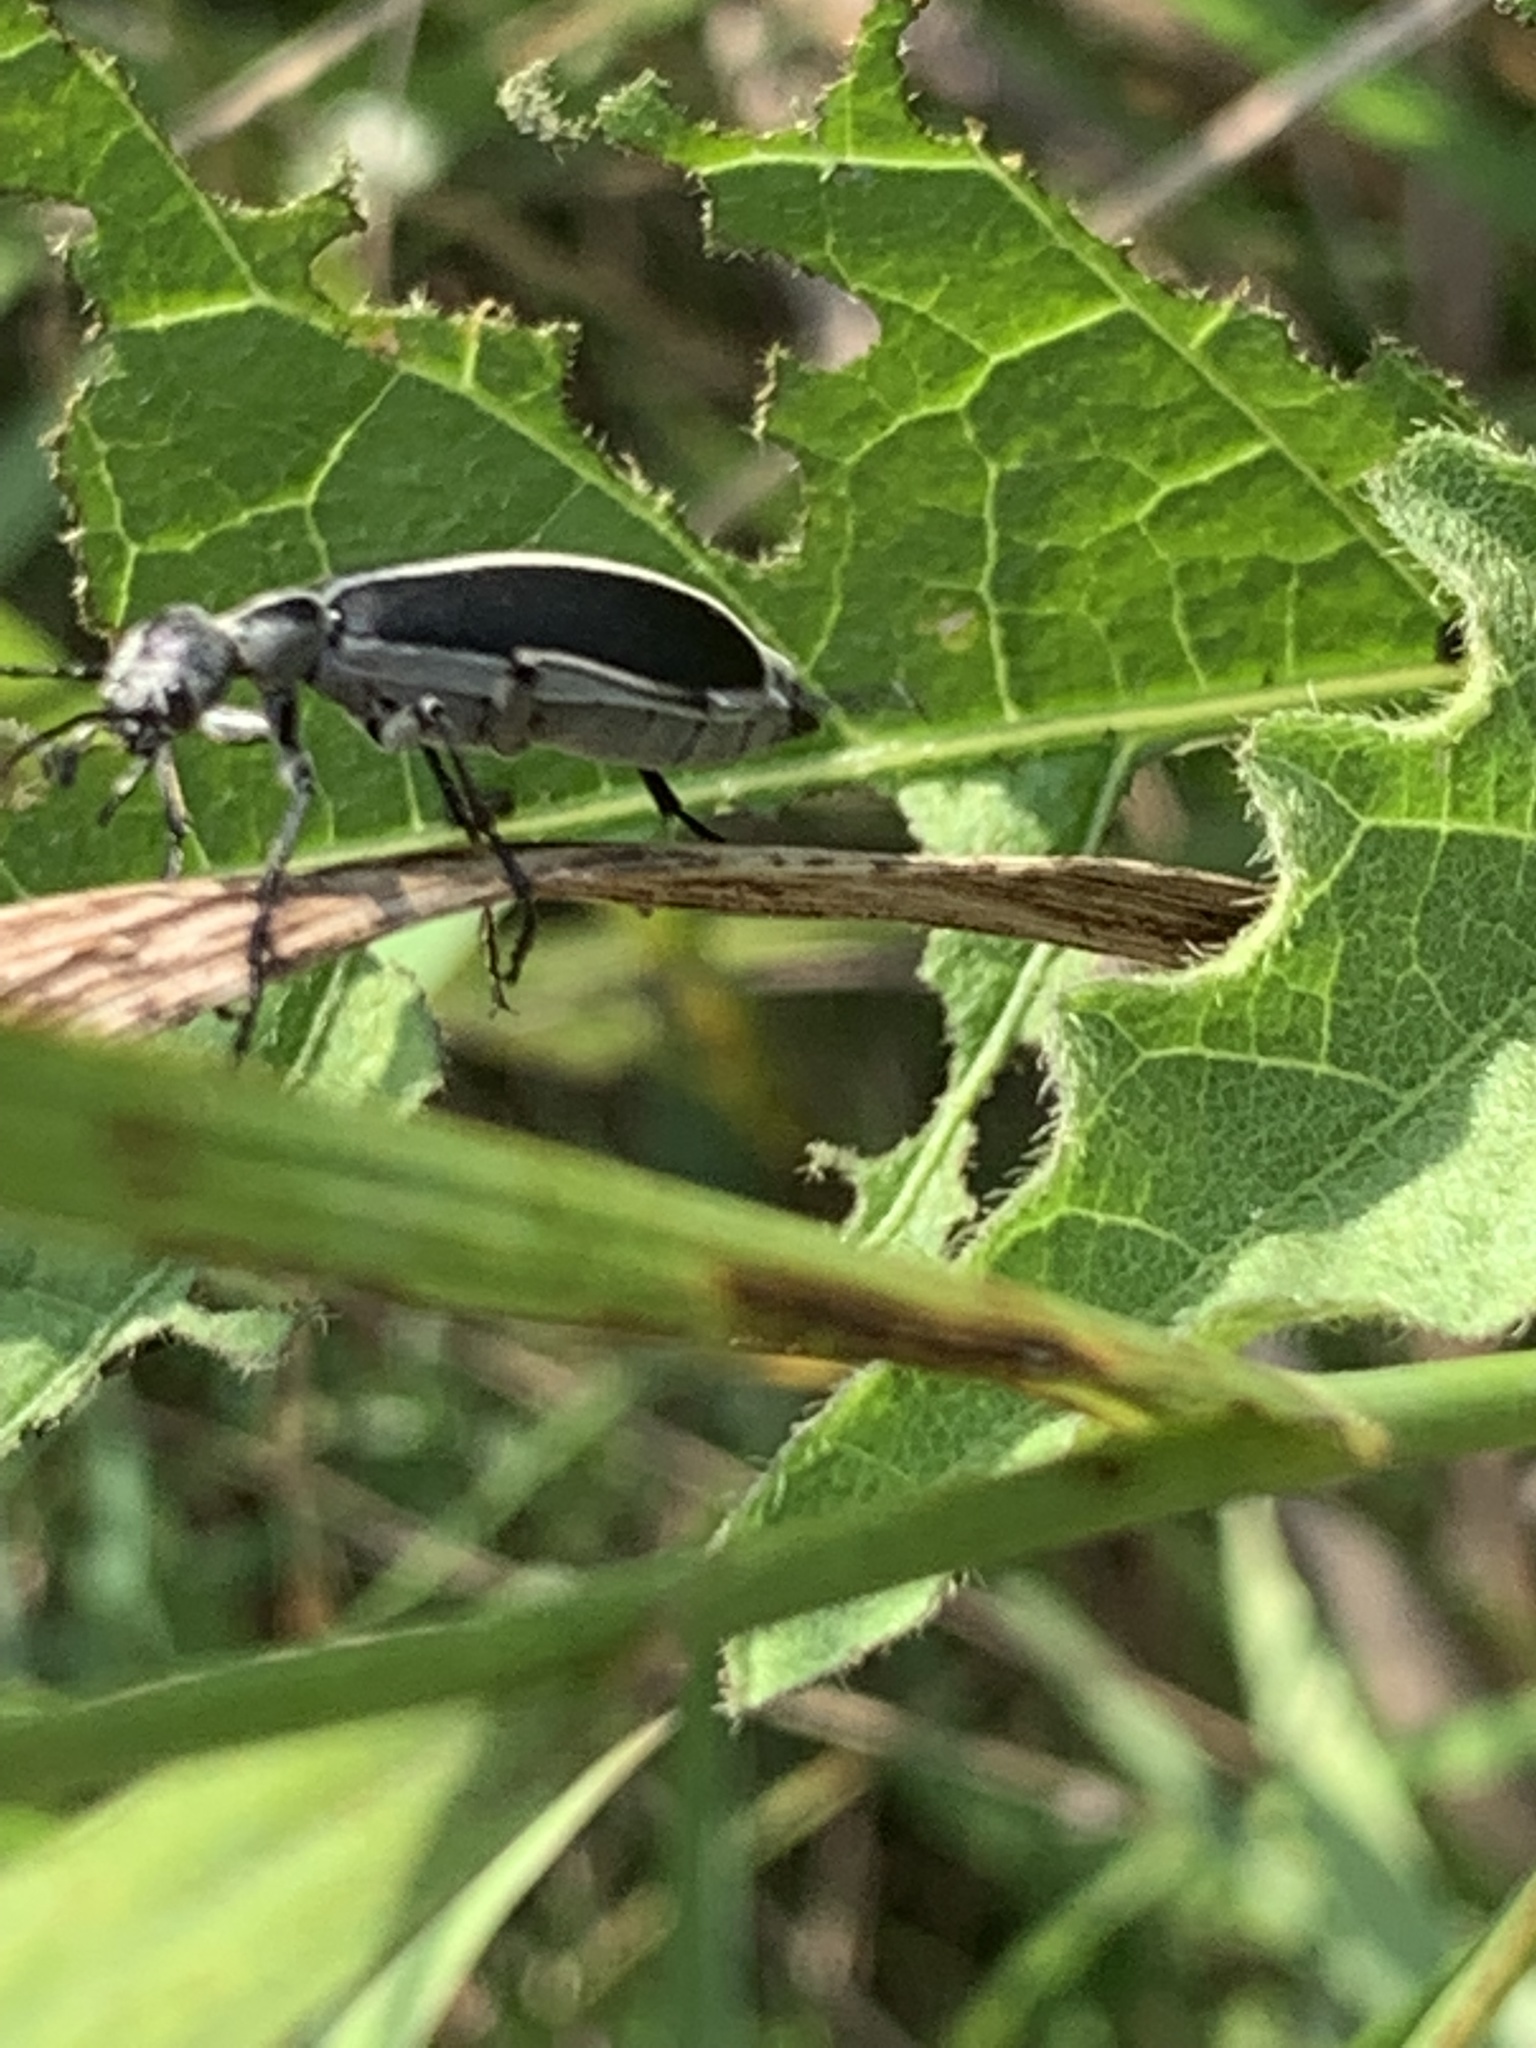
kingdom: Animalia
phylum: Arthropoda
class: Insecta
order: Coleoptera
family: Meloidae
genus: Epicauta
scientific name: Epicauta funebris
